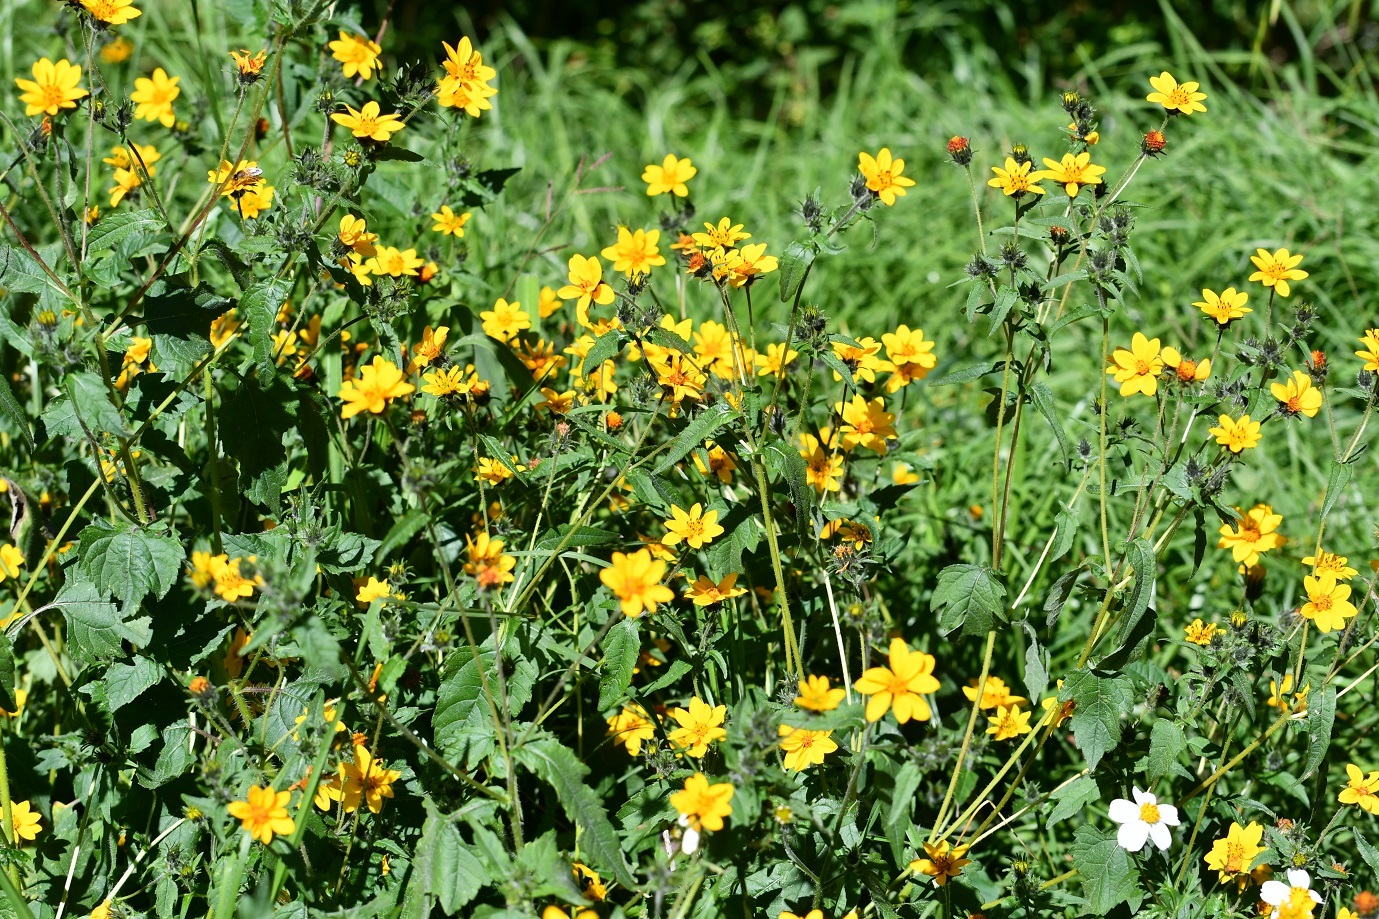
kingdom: Plantae
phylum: Tracheophyta
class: Magnoliopsida
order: Asterales
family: Asteraceae
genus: Simsia
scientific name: Simsia amplexicaulis
